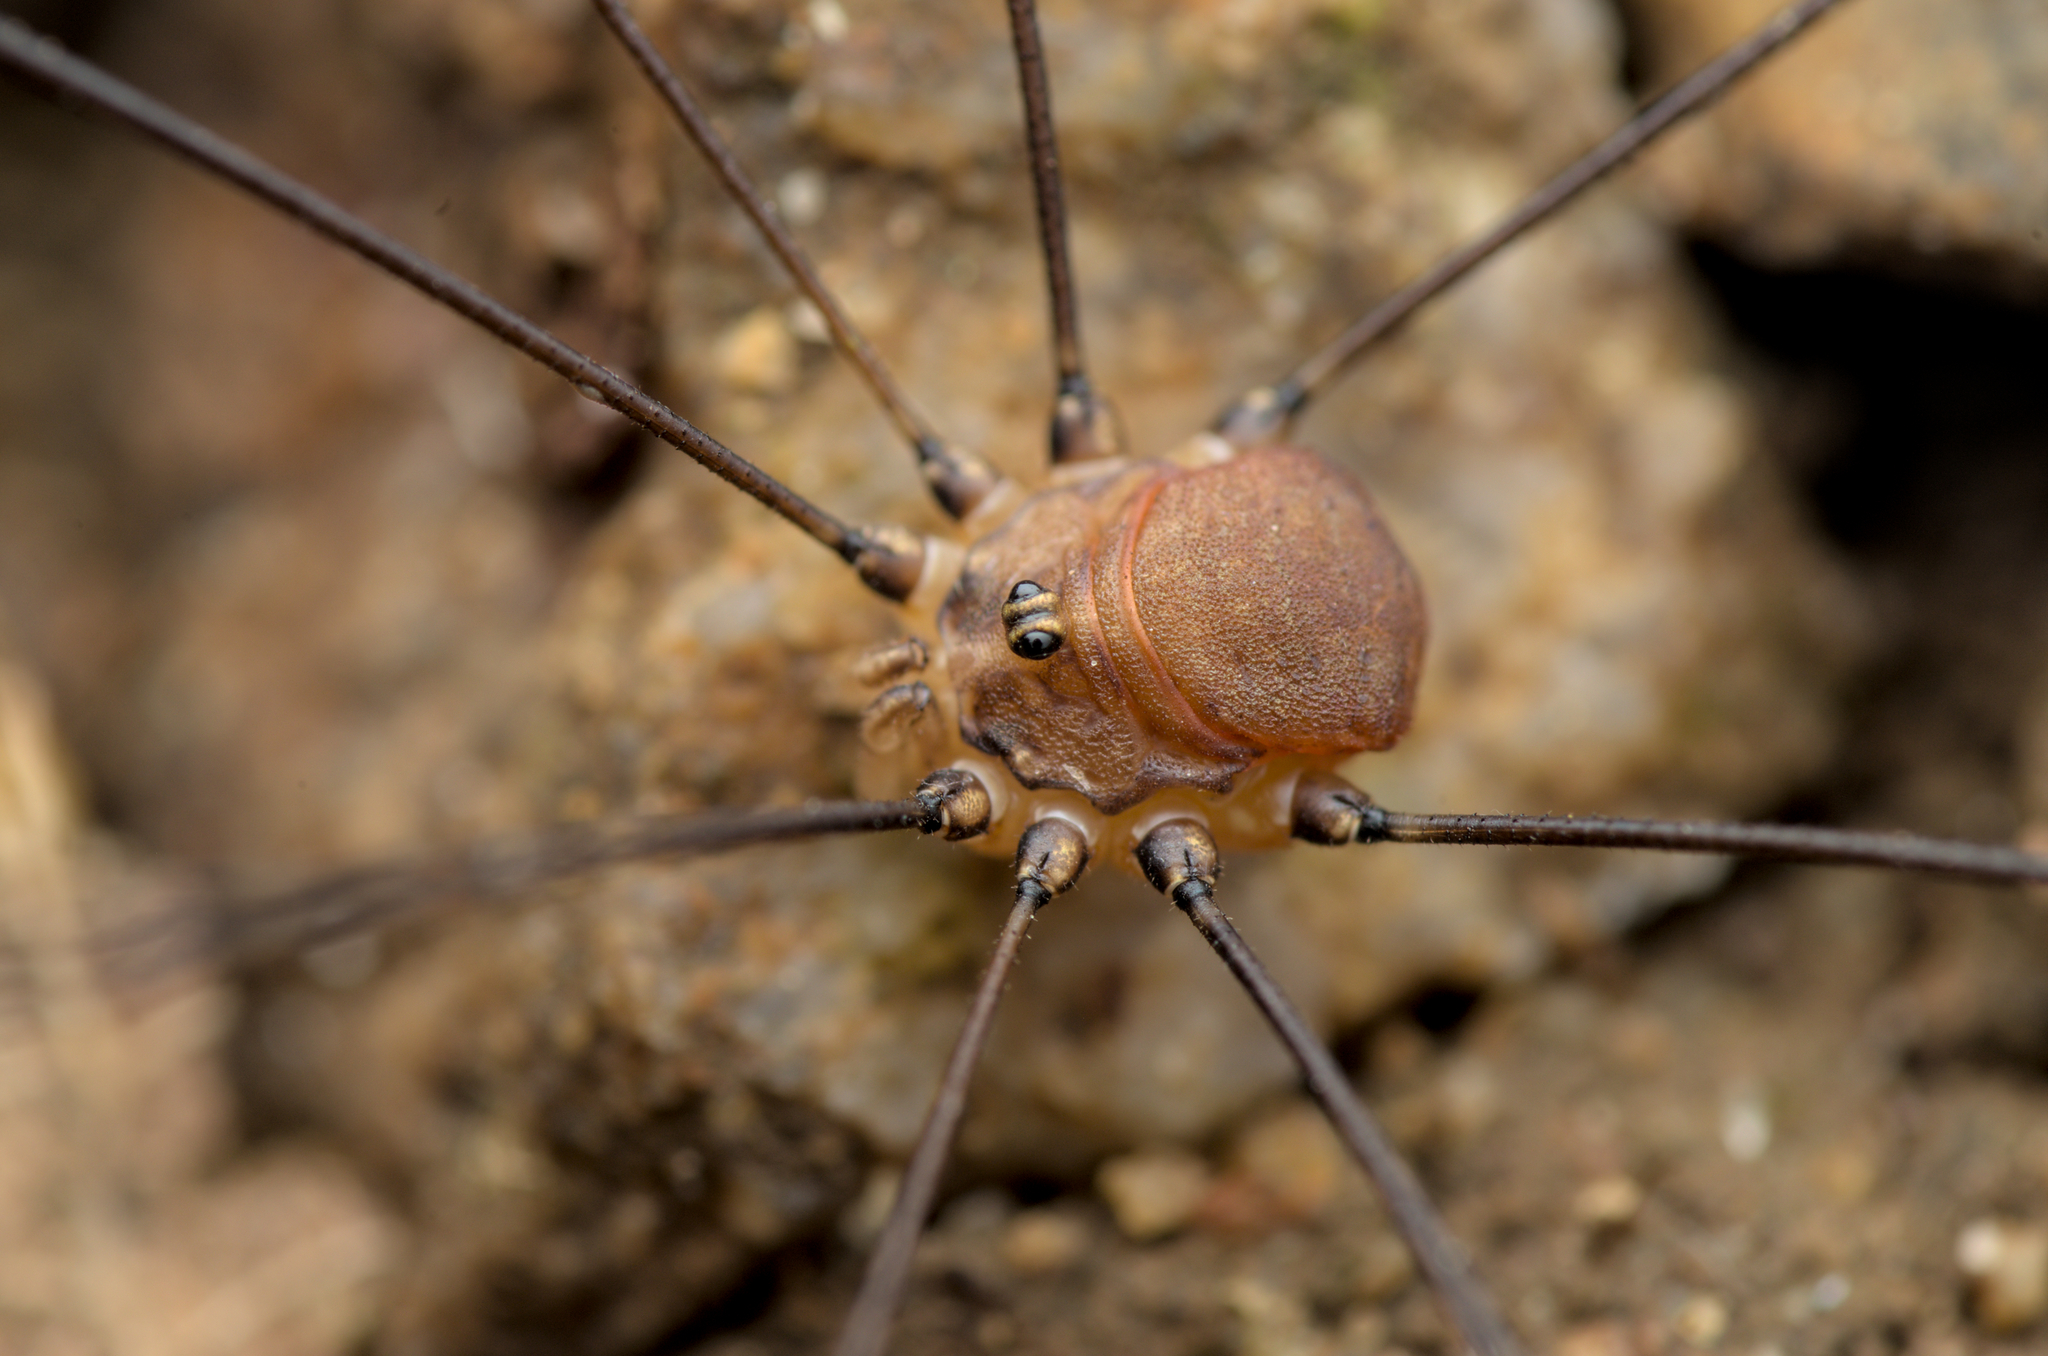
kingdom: Animalia
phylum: Arthropoda
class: Arachnida
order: Opiliones
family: Sclerosomatidae
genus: Leiobunum
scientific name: Leiobunum blackwalli
